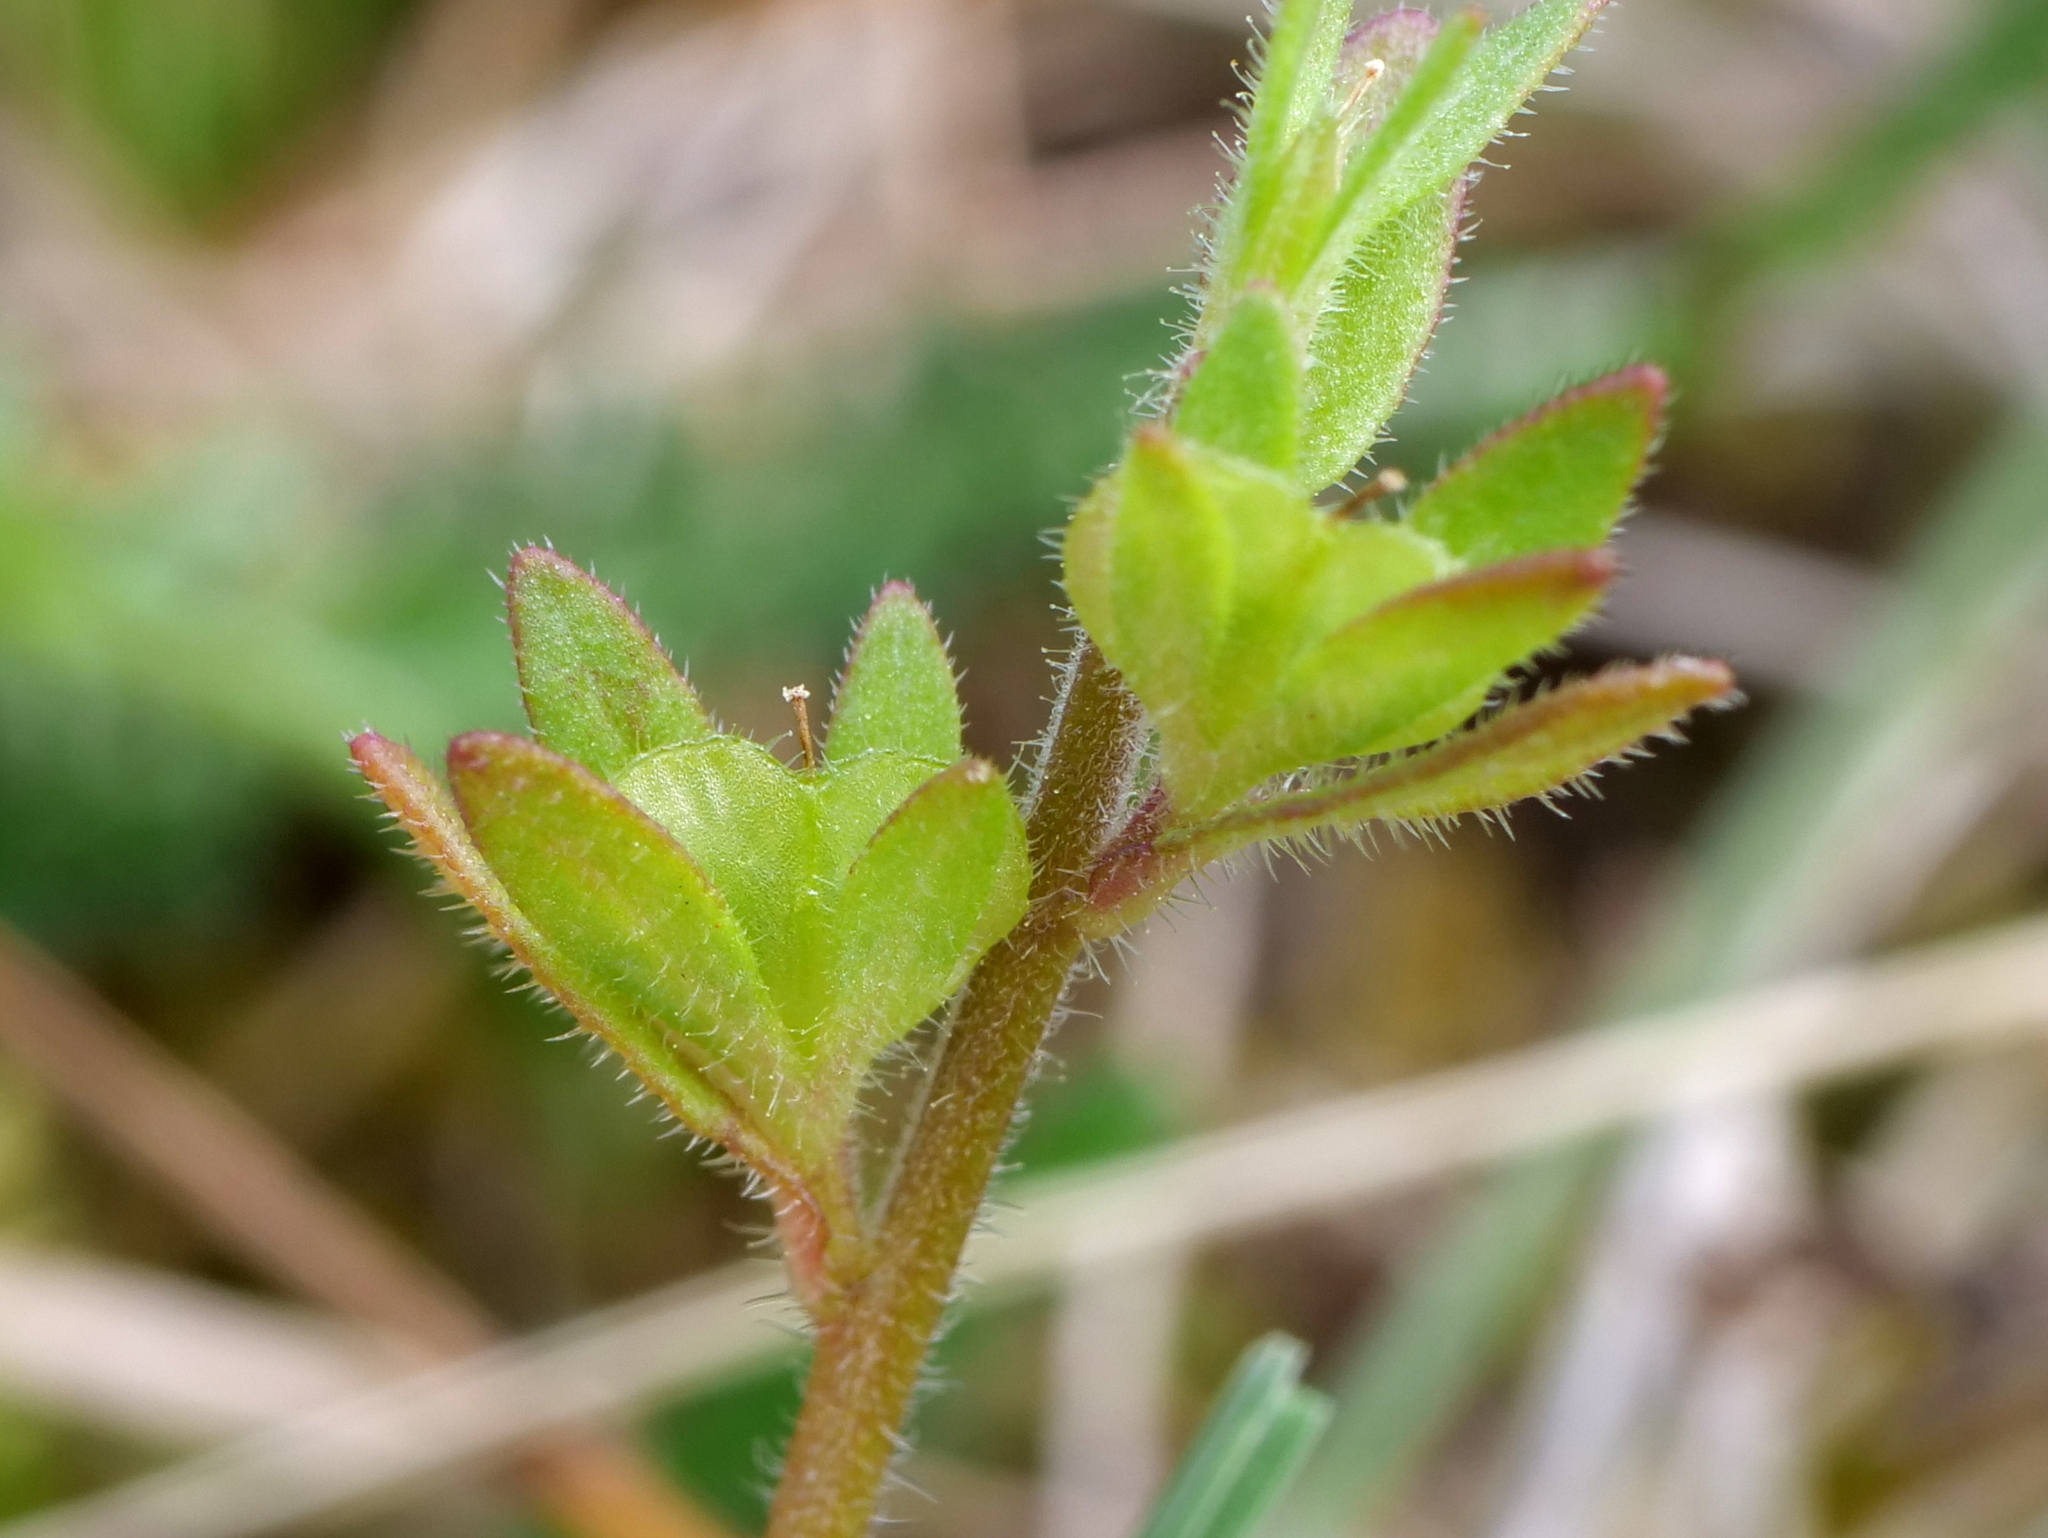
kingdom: Plantae
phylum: Tracheophyta
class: Magnoliopsida
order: Lamiales
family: Plantaginaceae
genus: Veronica
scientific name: Veronica arvensis
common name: Corn speedwell
